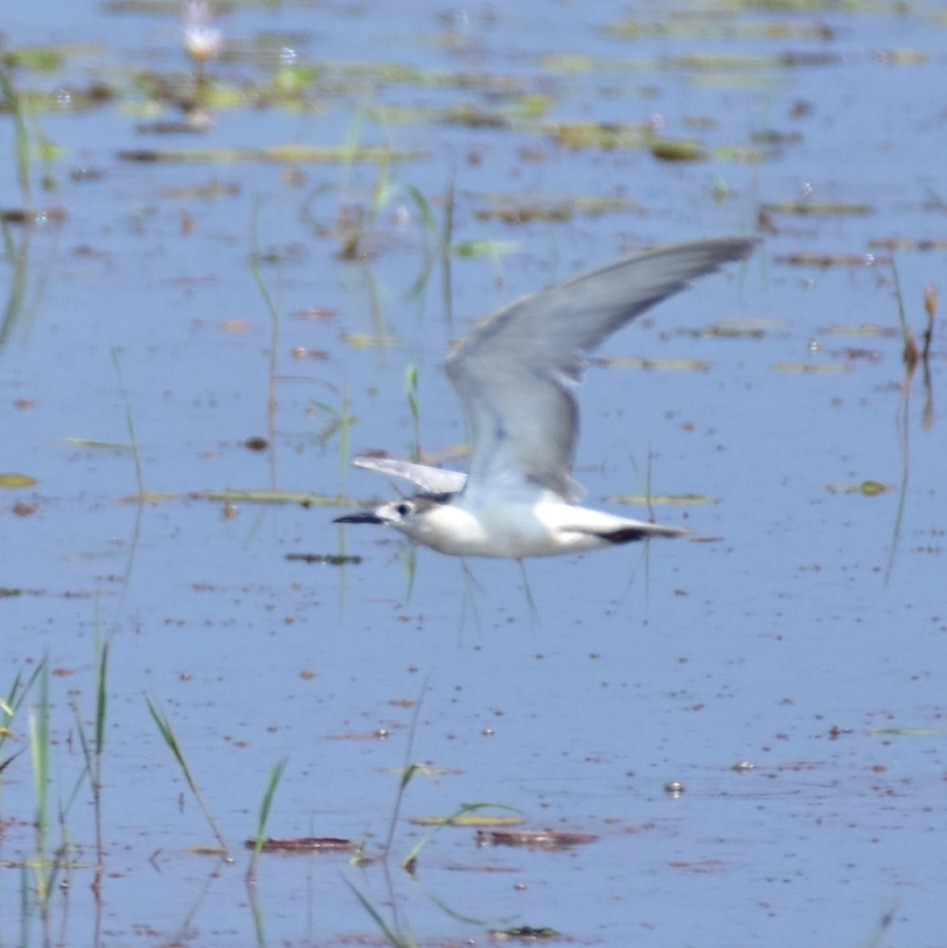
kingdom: Animalia
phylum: Chordata
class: Aves
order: Charadriiformes
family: Laridae
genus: Chlidonias
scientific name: Chlidonias hybrida
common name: Whiskered tern
